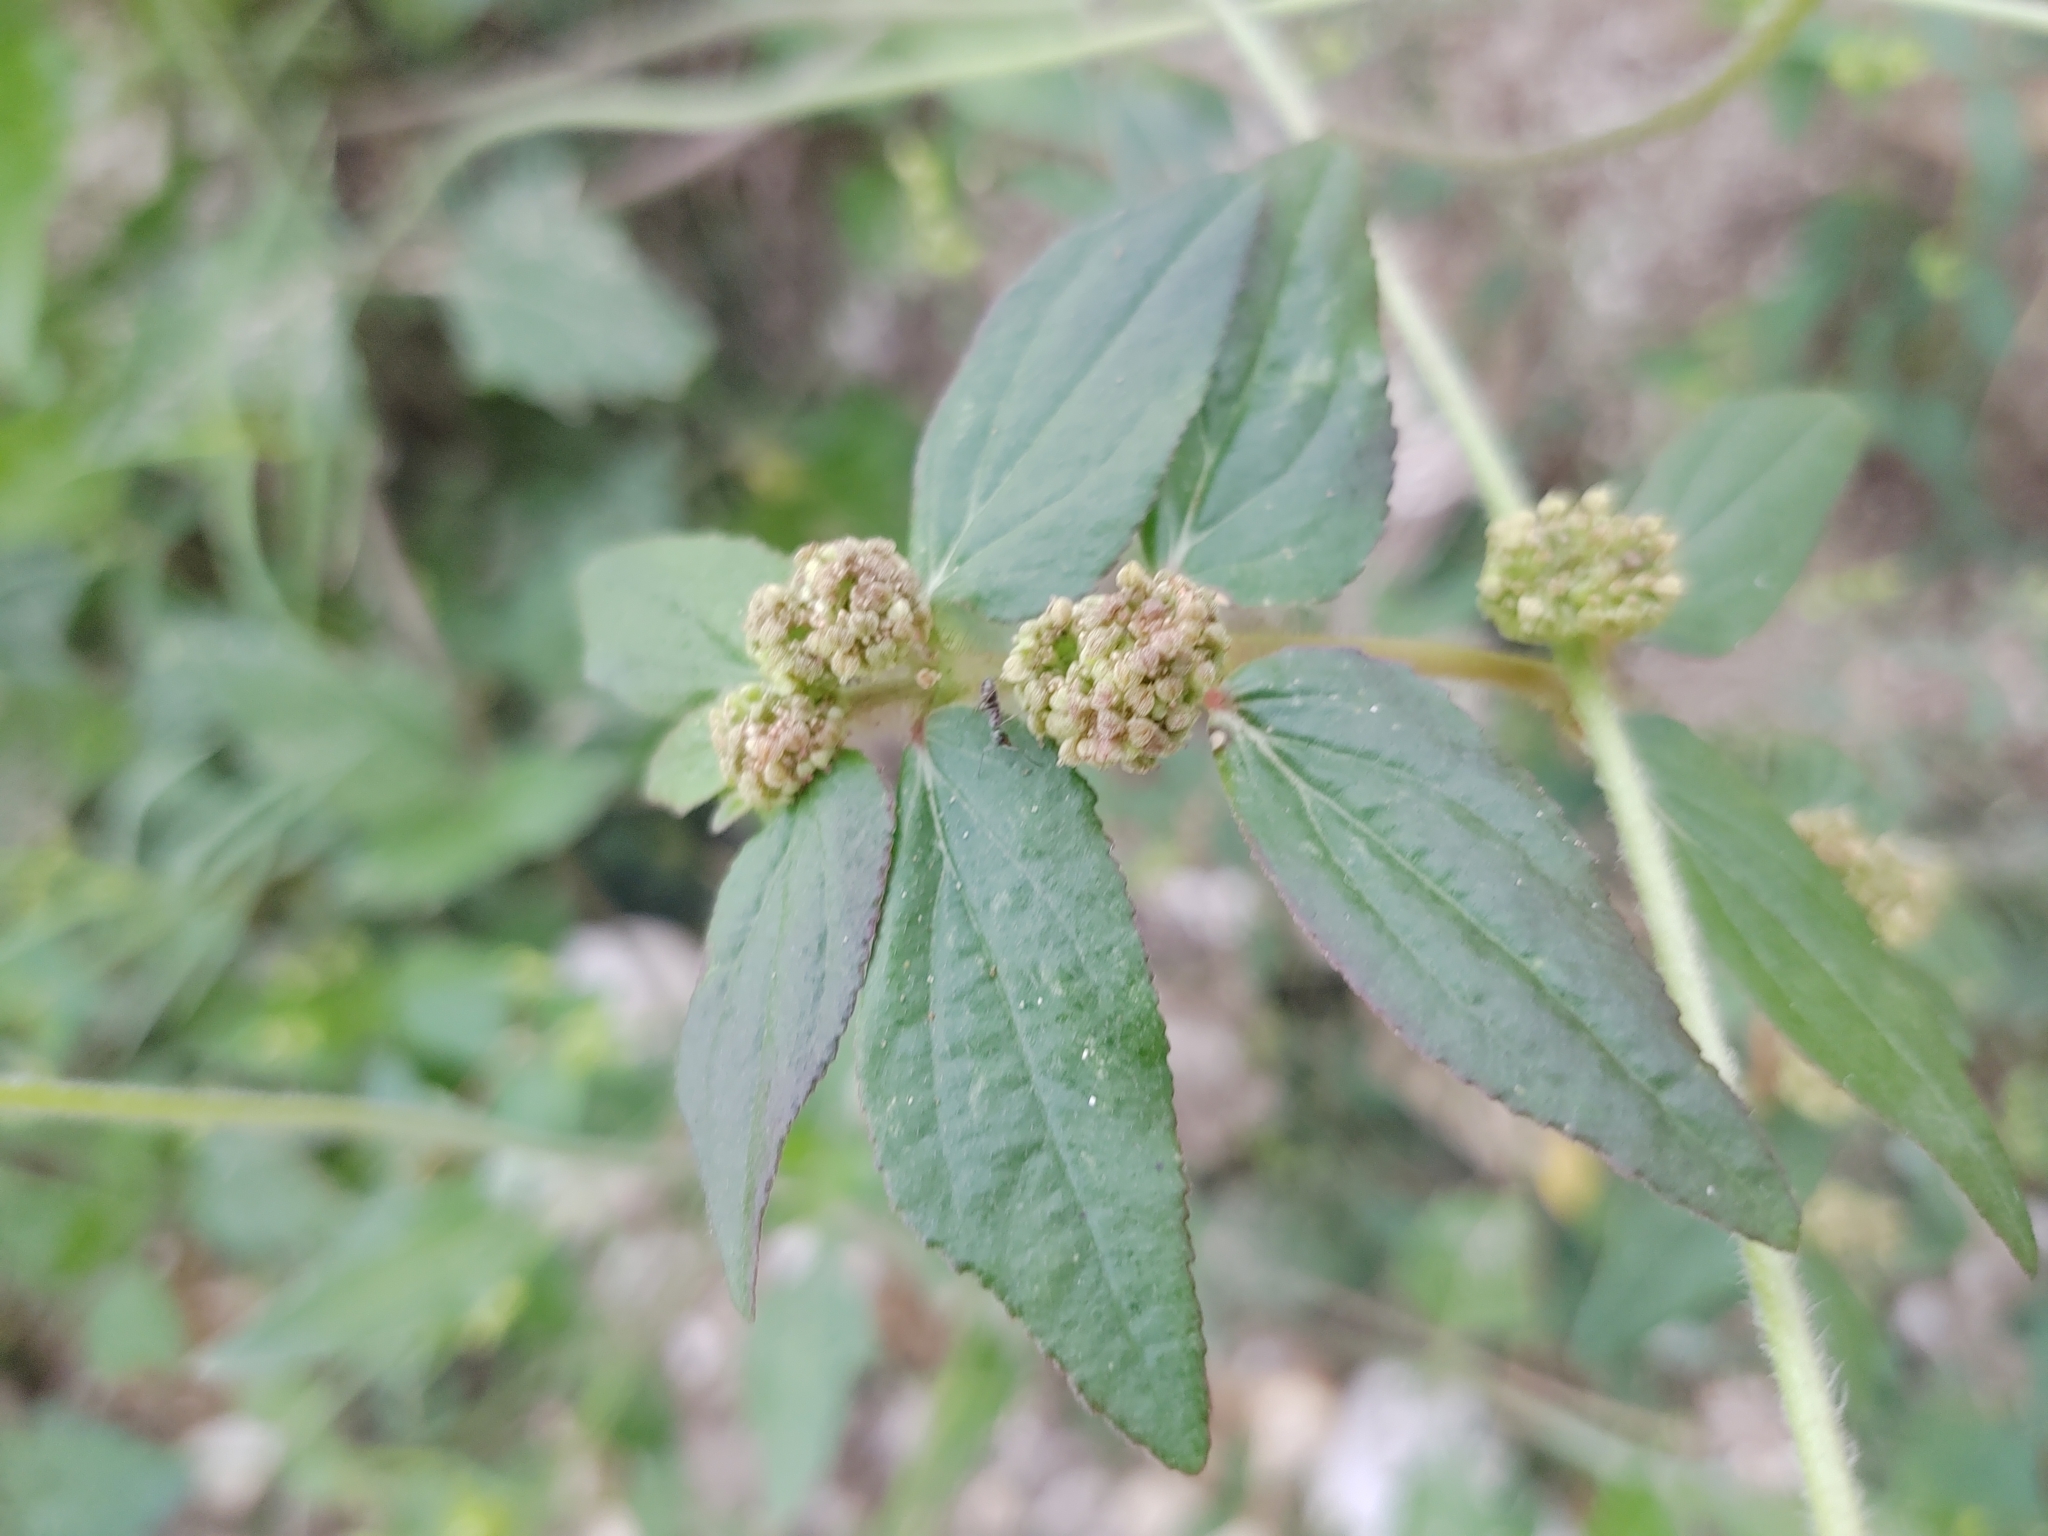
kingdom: Plantae
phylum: Tracheophyta
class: Magnoliopsida
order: Malpighiales
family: Euphorbiaceae
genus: Euphorbia
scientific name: Euphorbia hirta
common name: Pillpod sandmat
